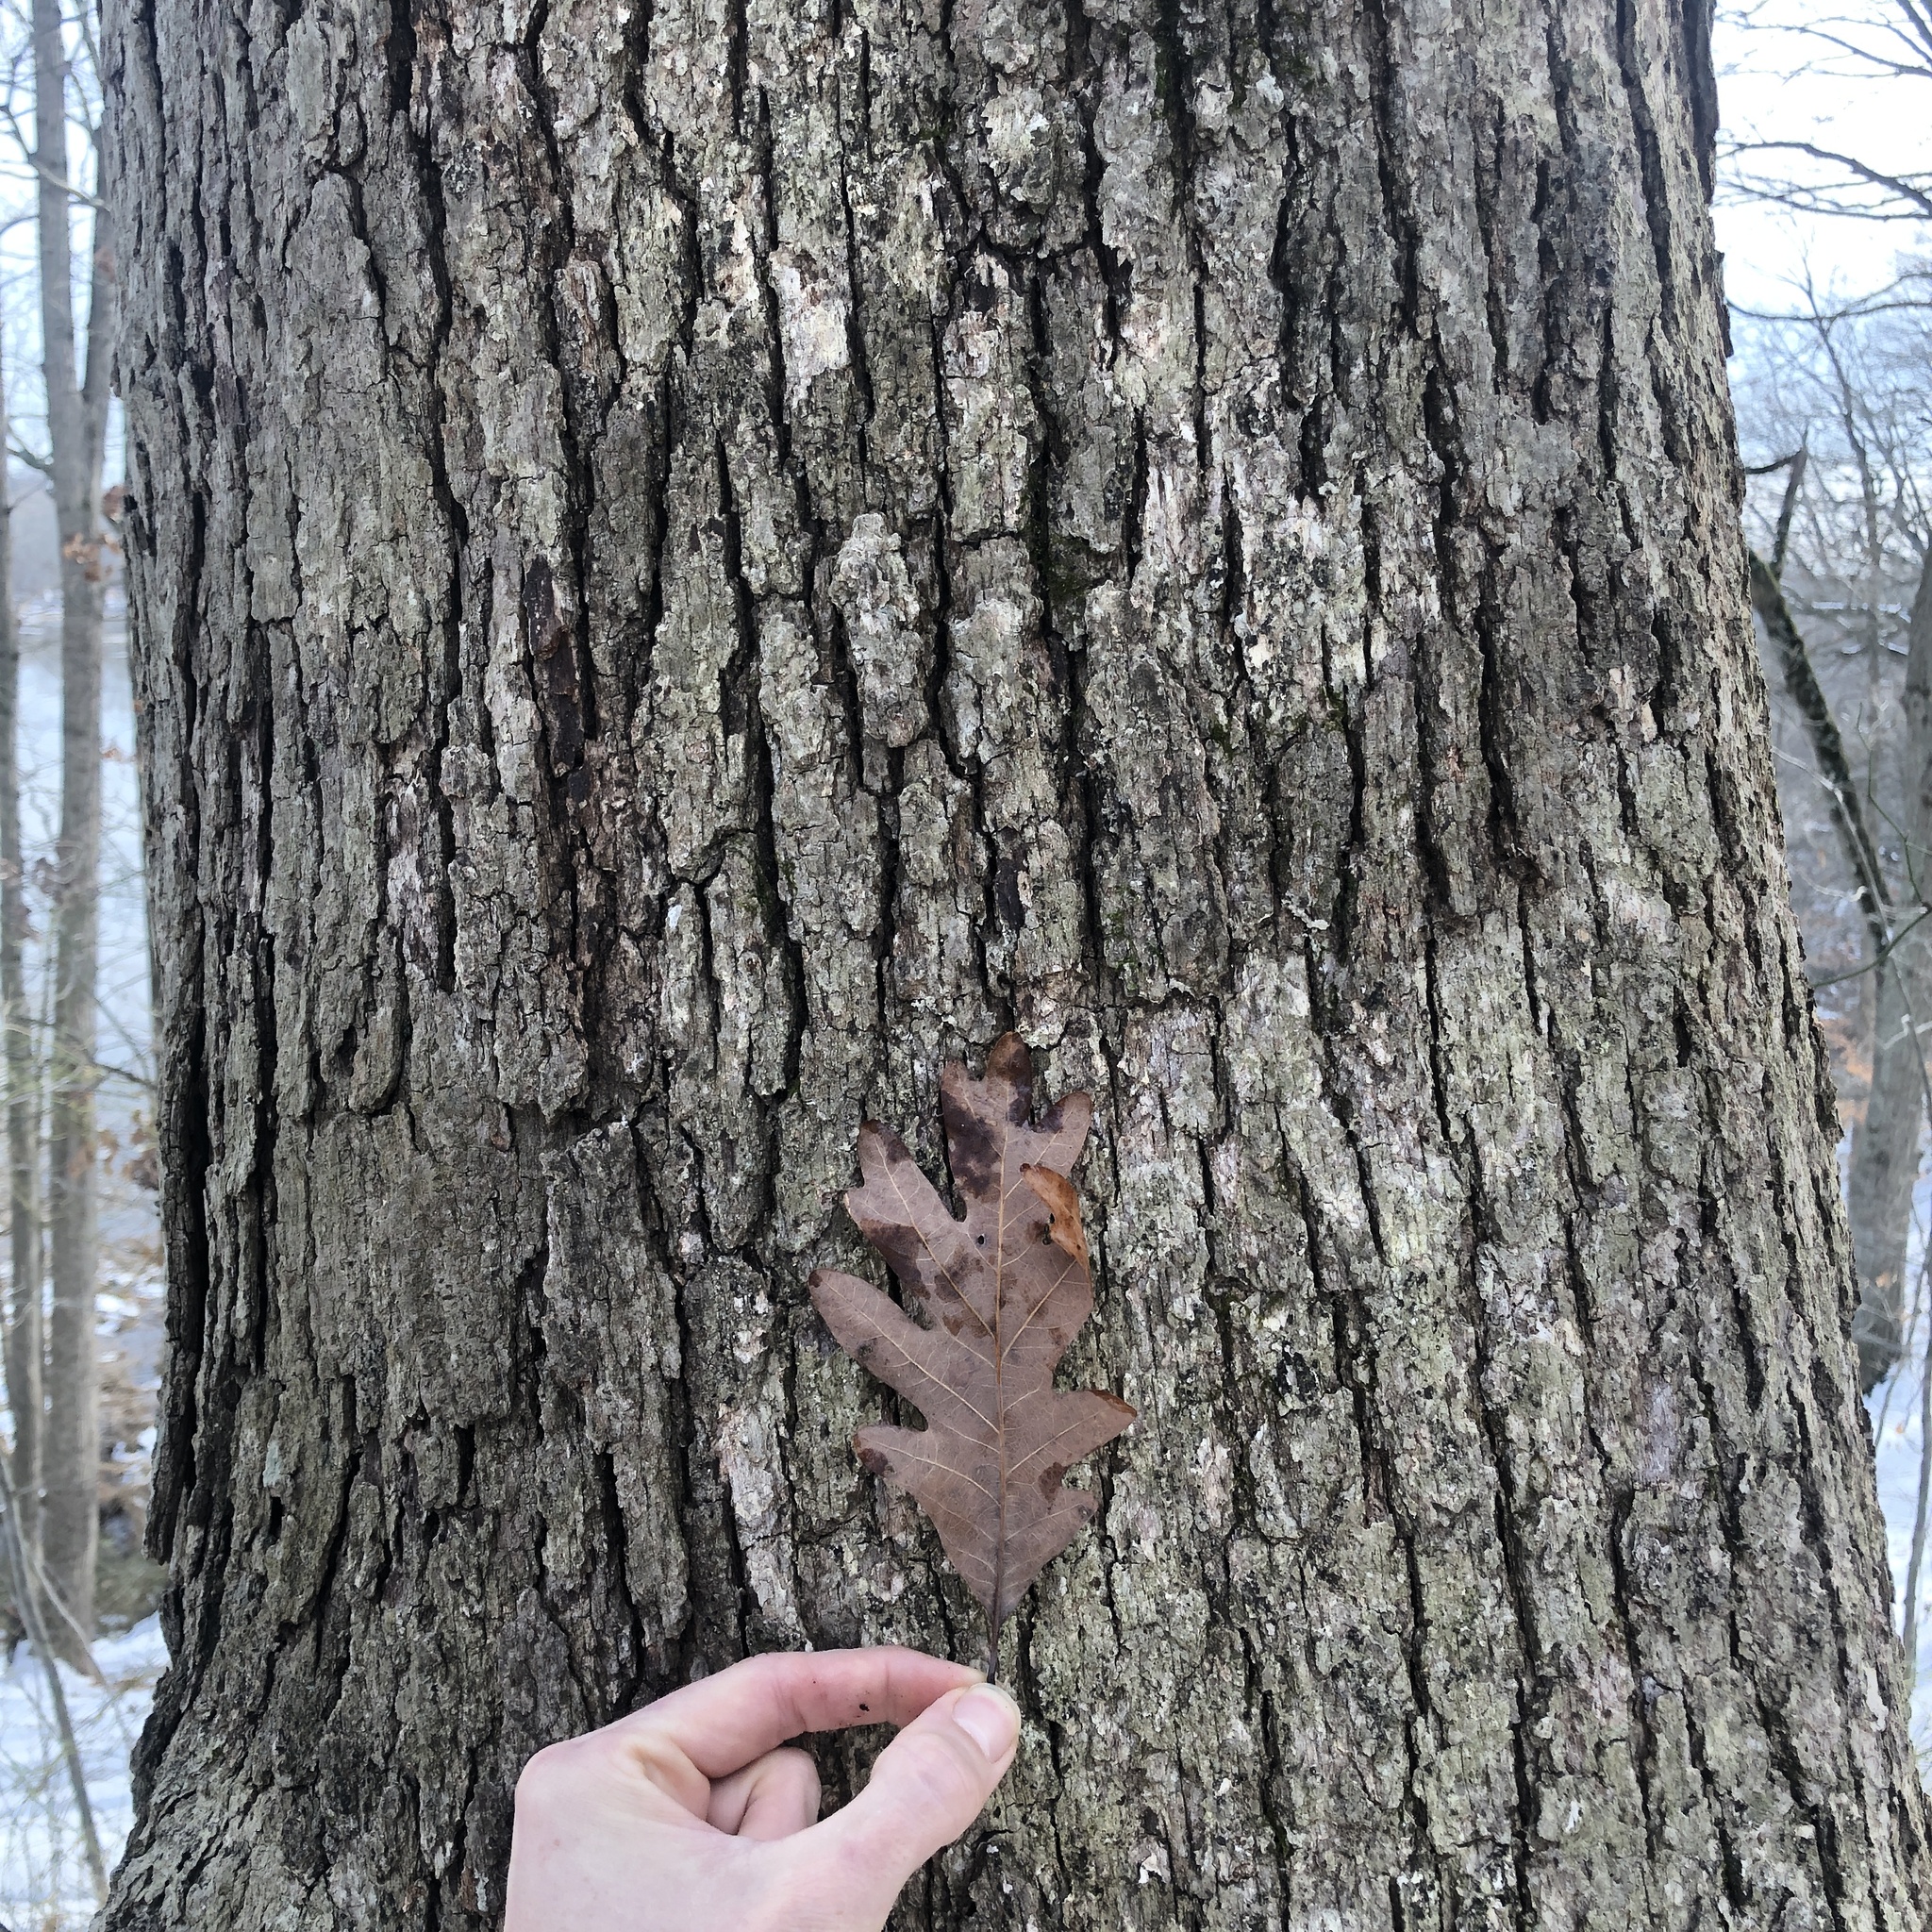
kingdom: Plantae
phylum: Tracheophyta
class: Magnoliopsida
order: Fagales
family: Fagaceae
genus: Quercus
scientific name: Quercus alba
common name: White oak
